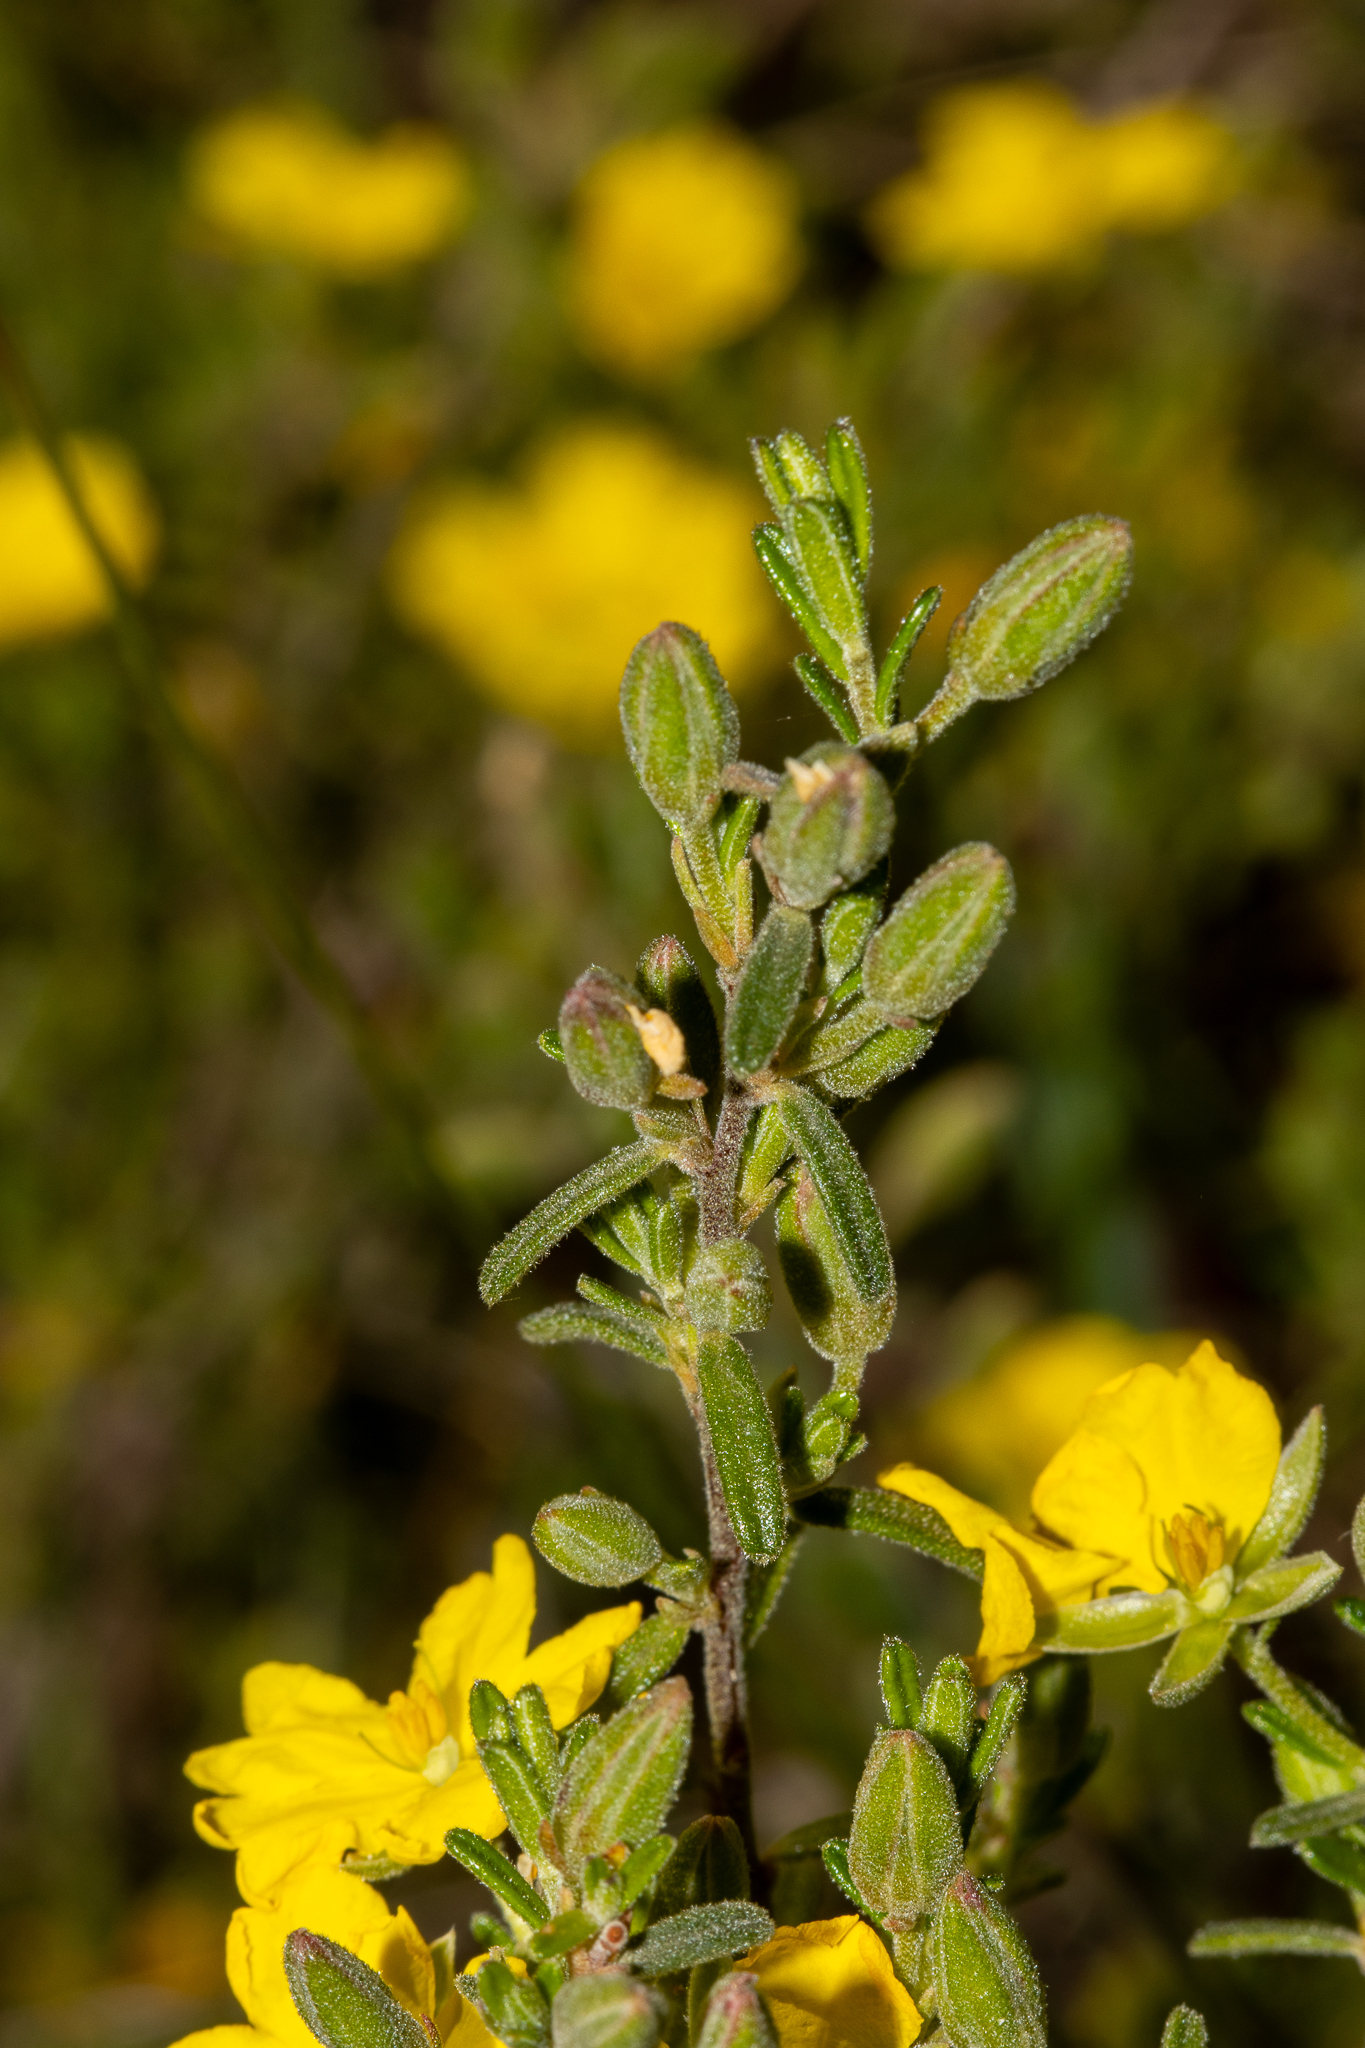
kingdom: Plantae
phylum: Tracheophyta
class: Magnoliopsida
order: Dilleniales
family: Dilleniaceae
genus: Hibbertia
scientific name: Hibbertia australis
